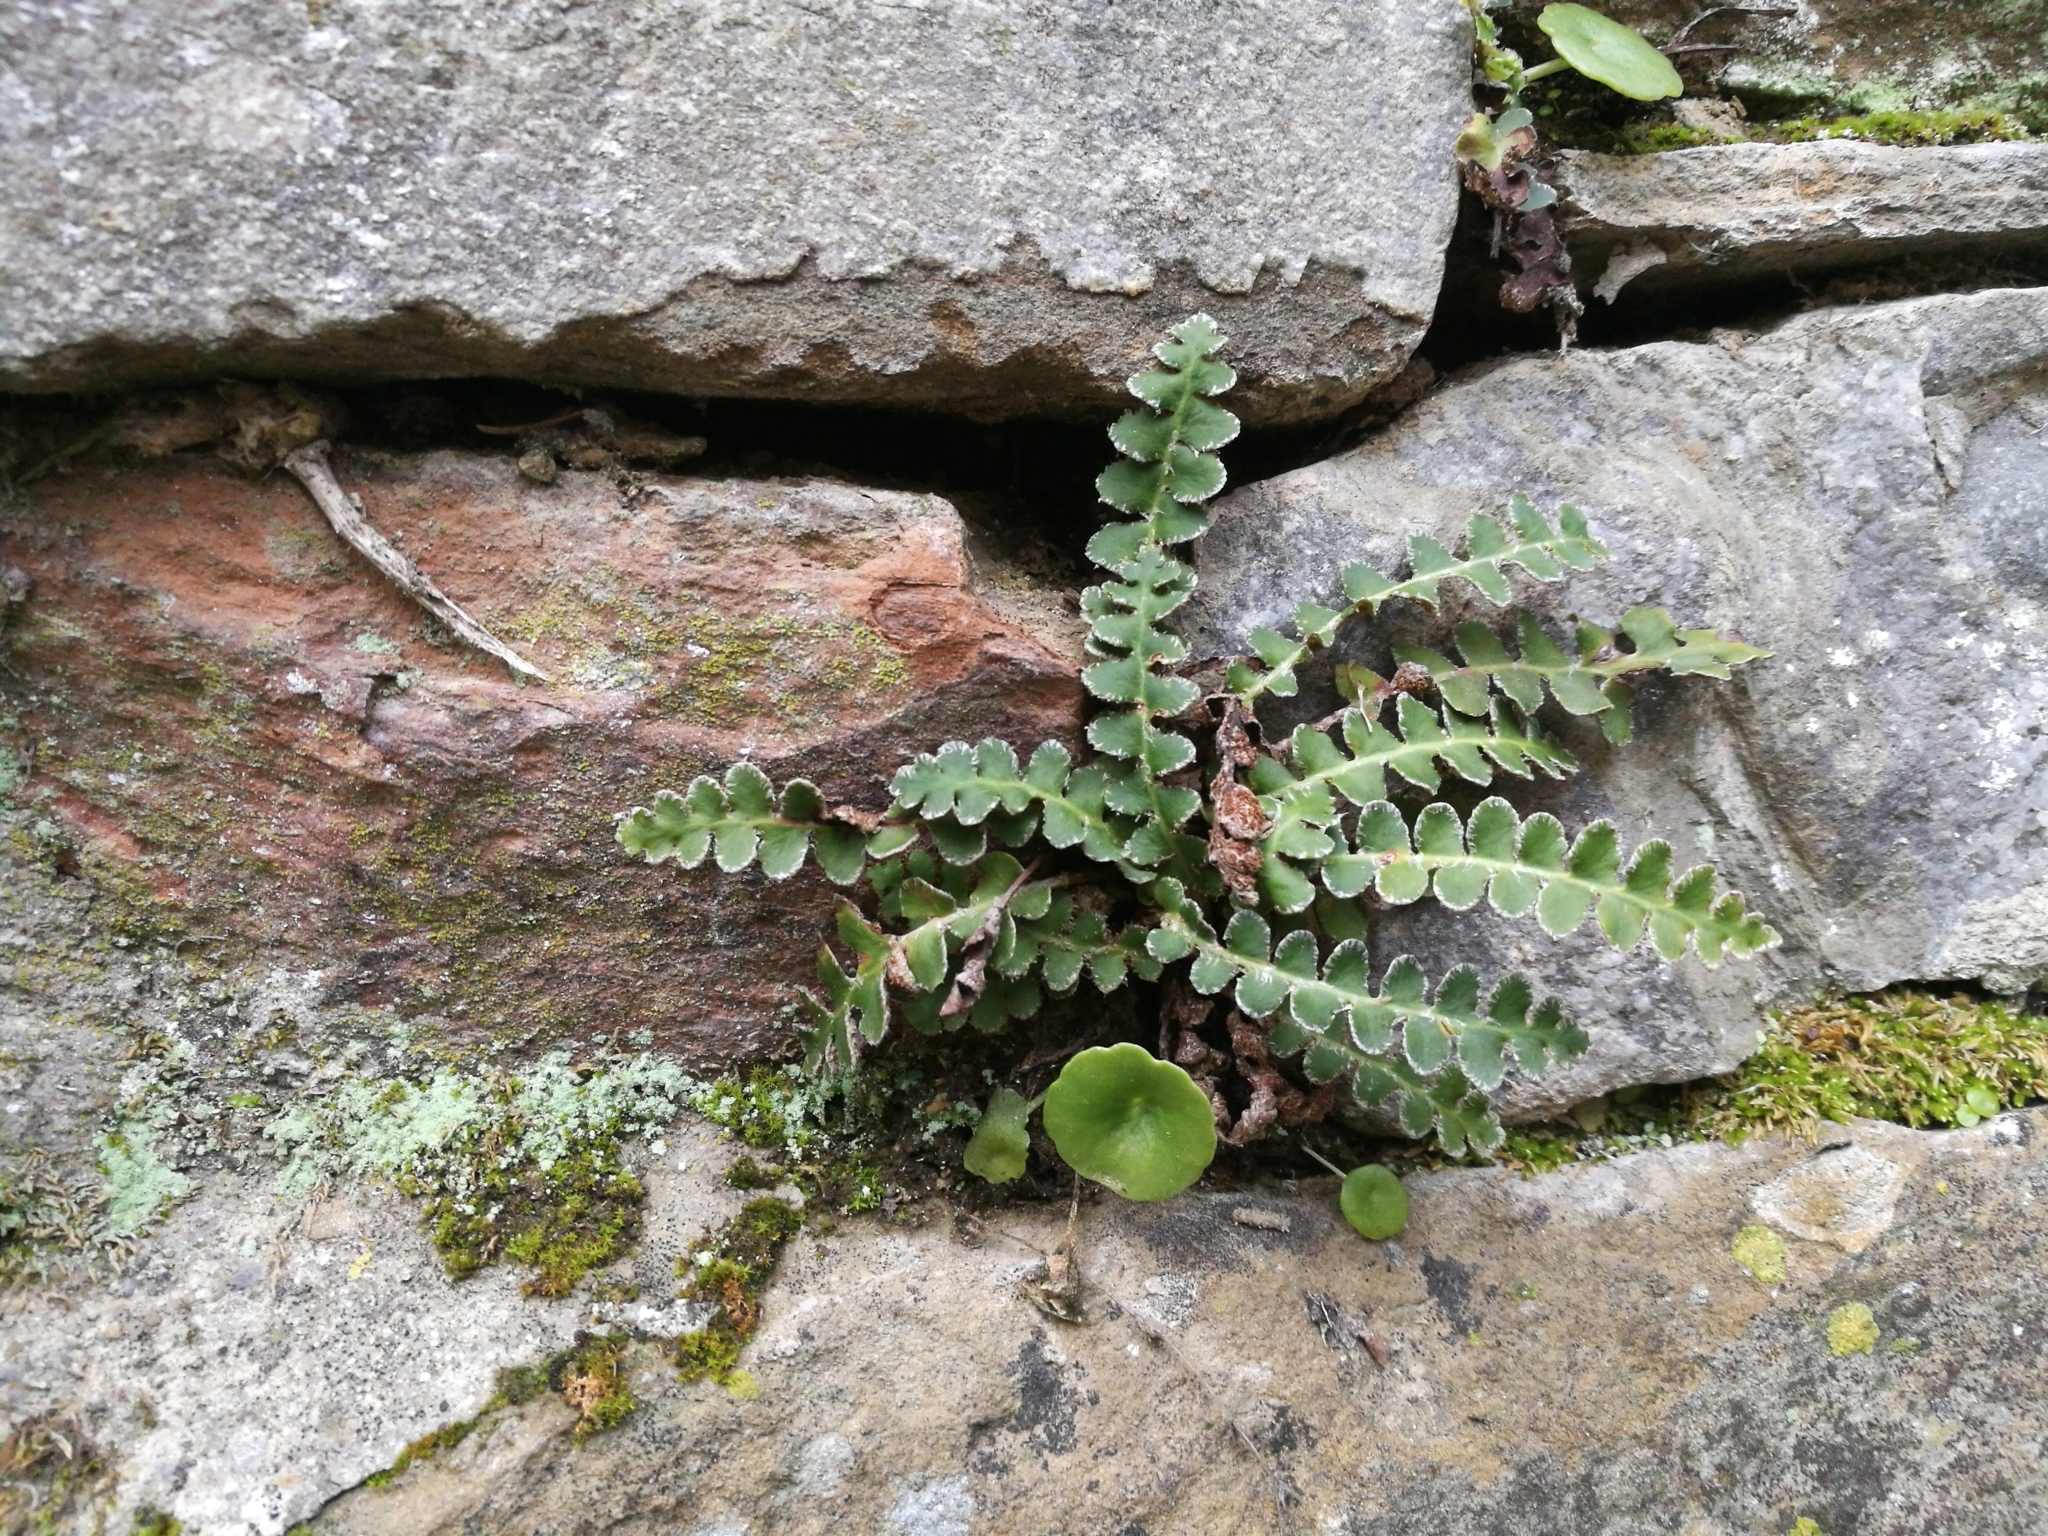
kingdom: Plantae
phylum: Tracheophyta
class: Polypodiopsida
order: Polypodiales
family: Aspleniaceae
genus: Asplenium
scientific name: Asplenium ceterach
